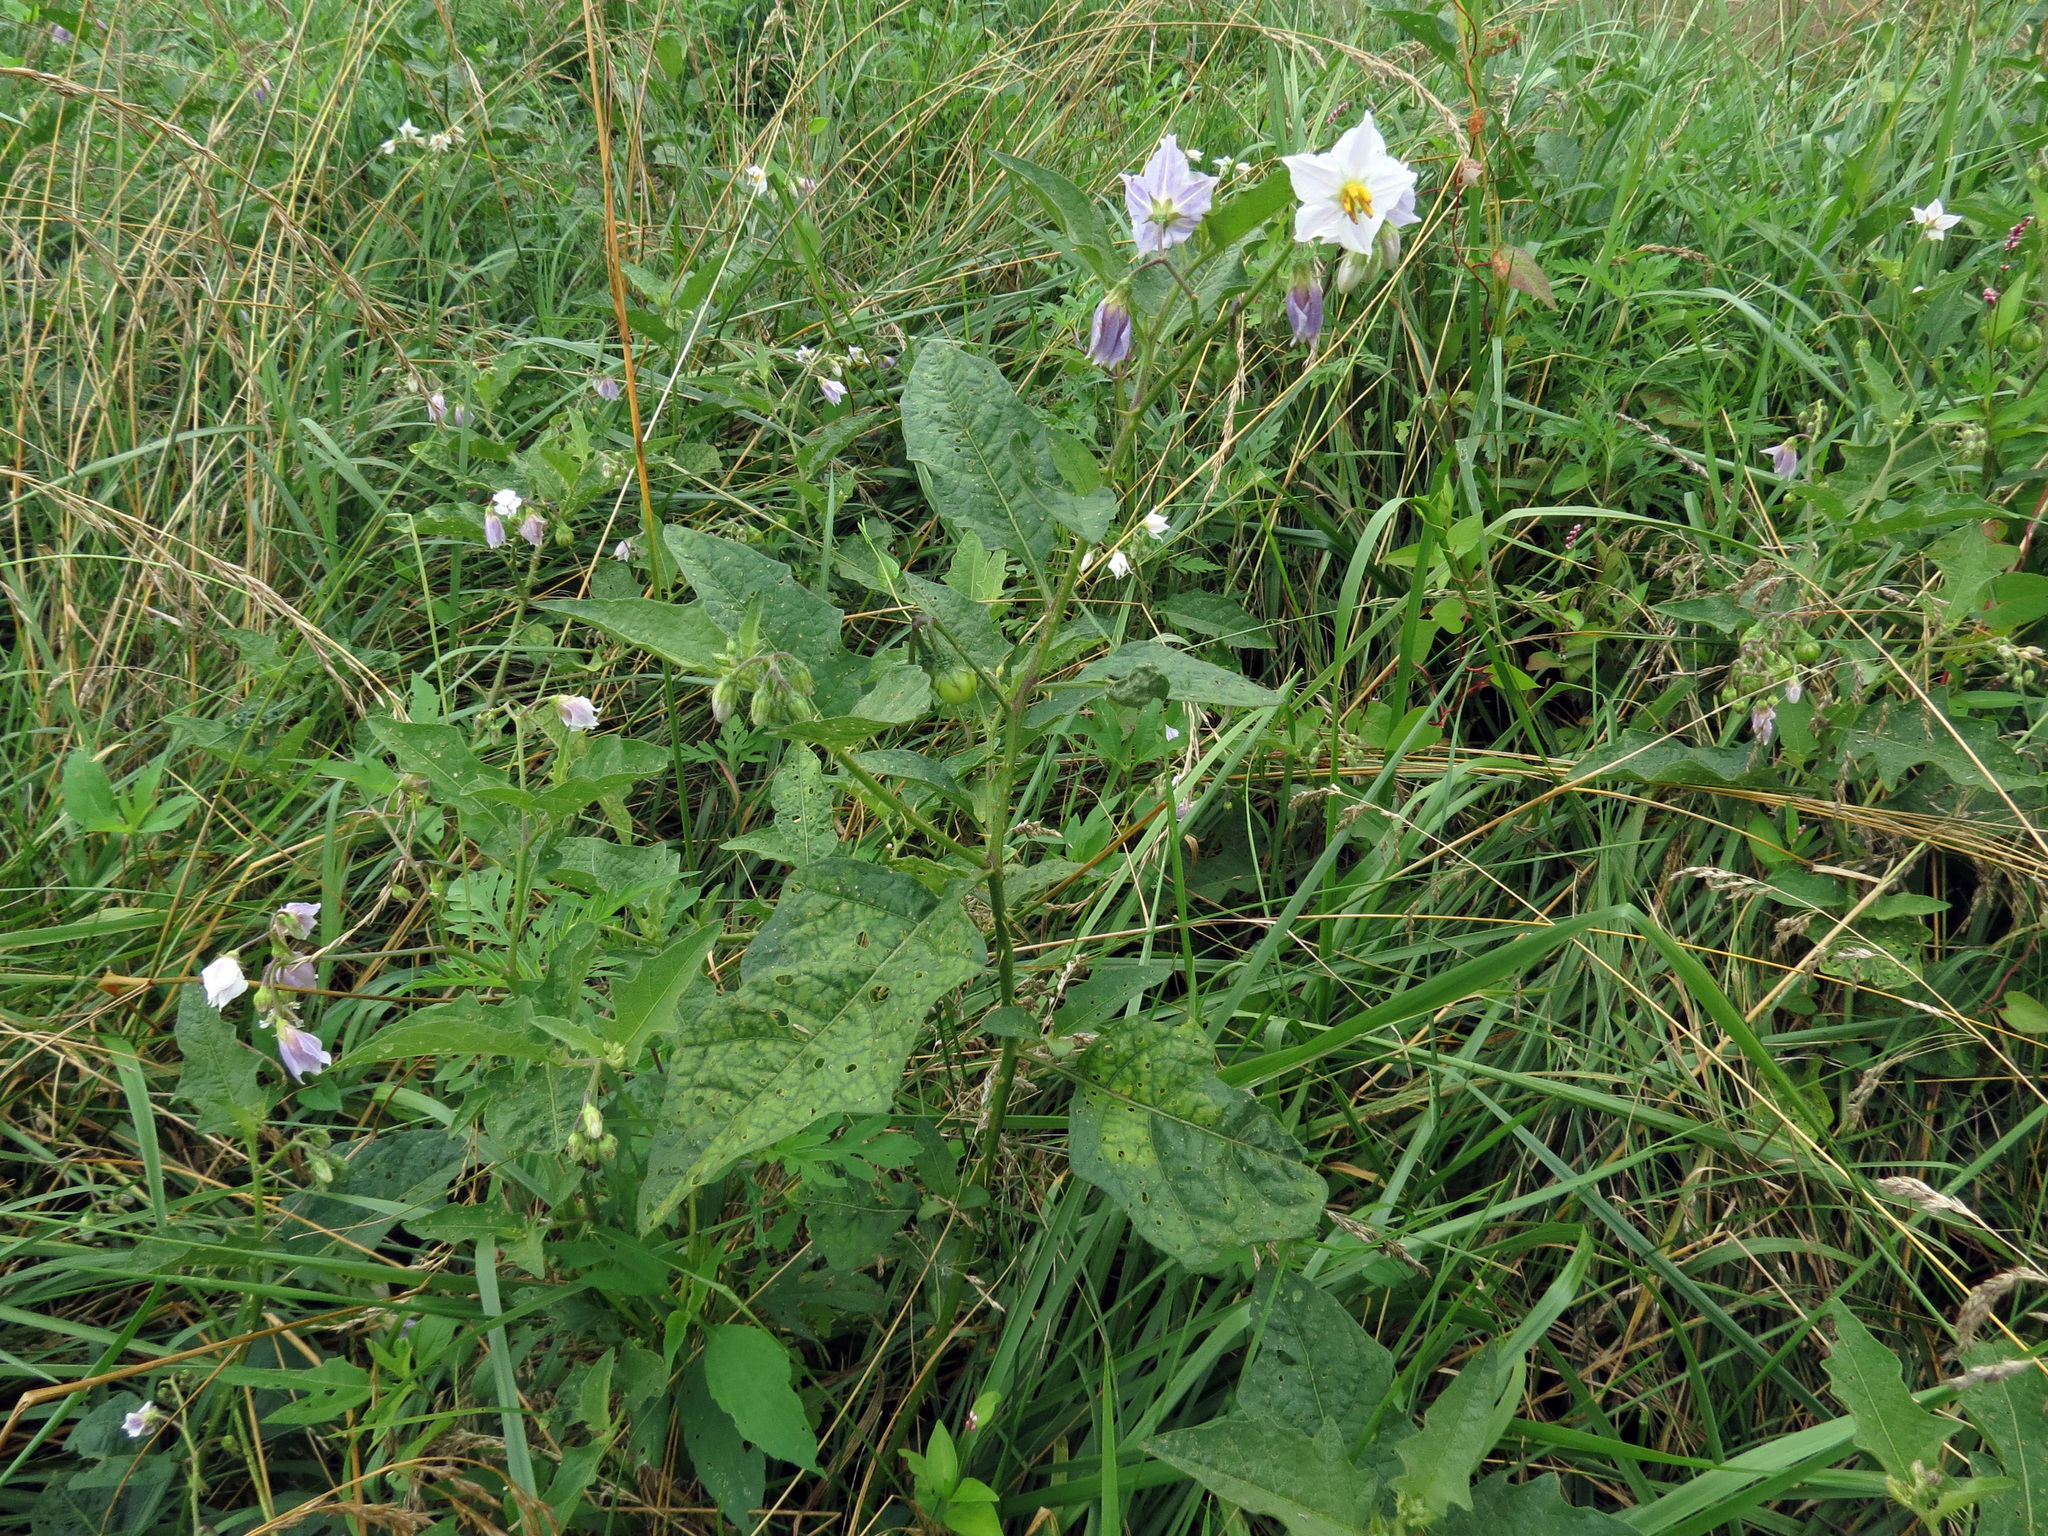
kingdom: Plantae
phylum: Tracheophyta
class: Magnoliopsida
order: Solanales
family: Solanaceae
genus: Solanum
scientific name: Solanum carolinense
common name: Horse-nettle
